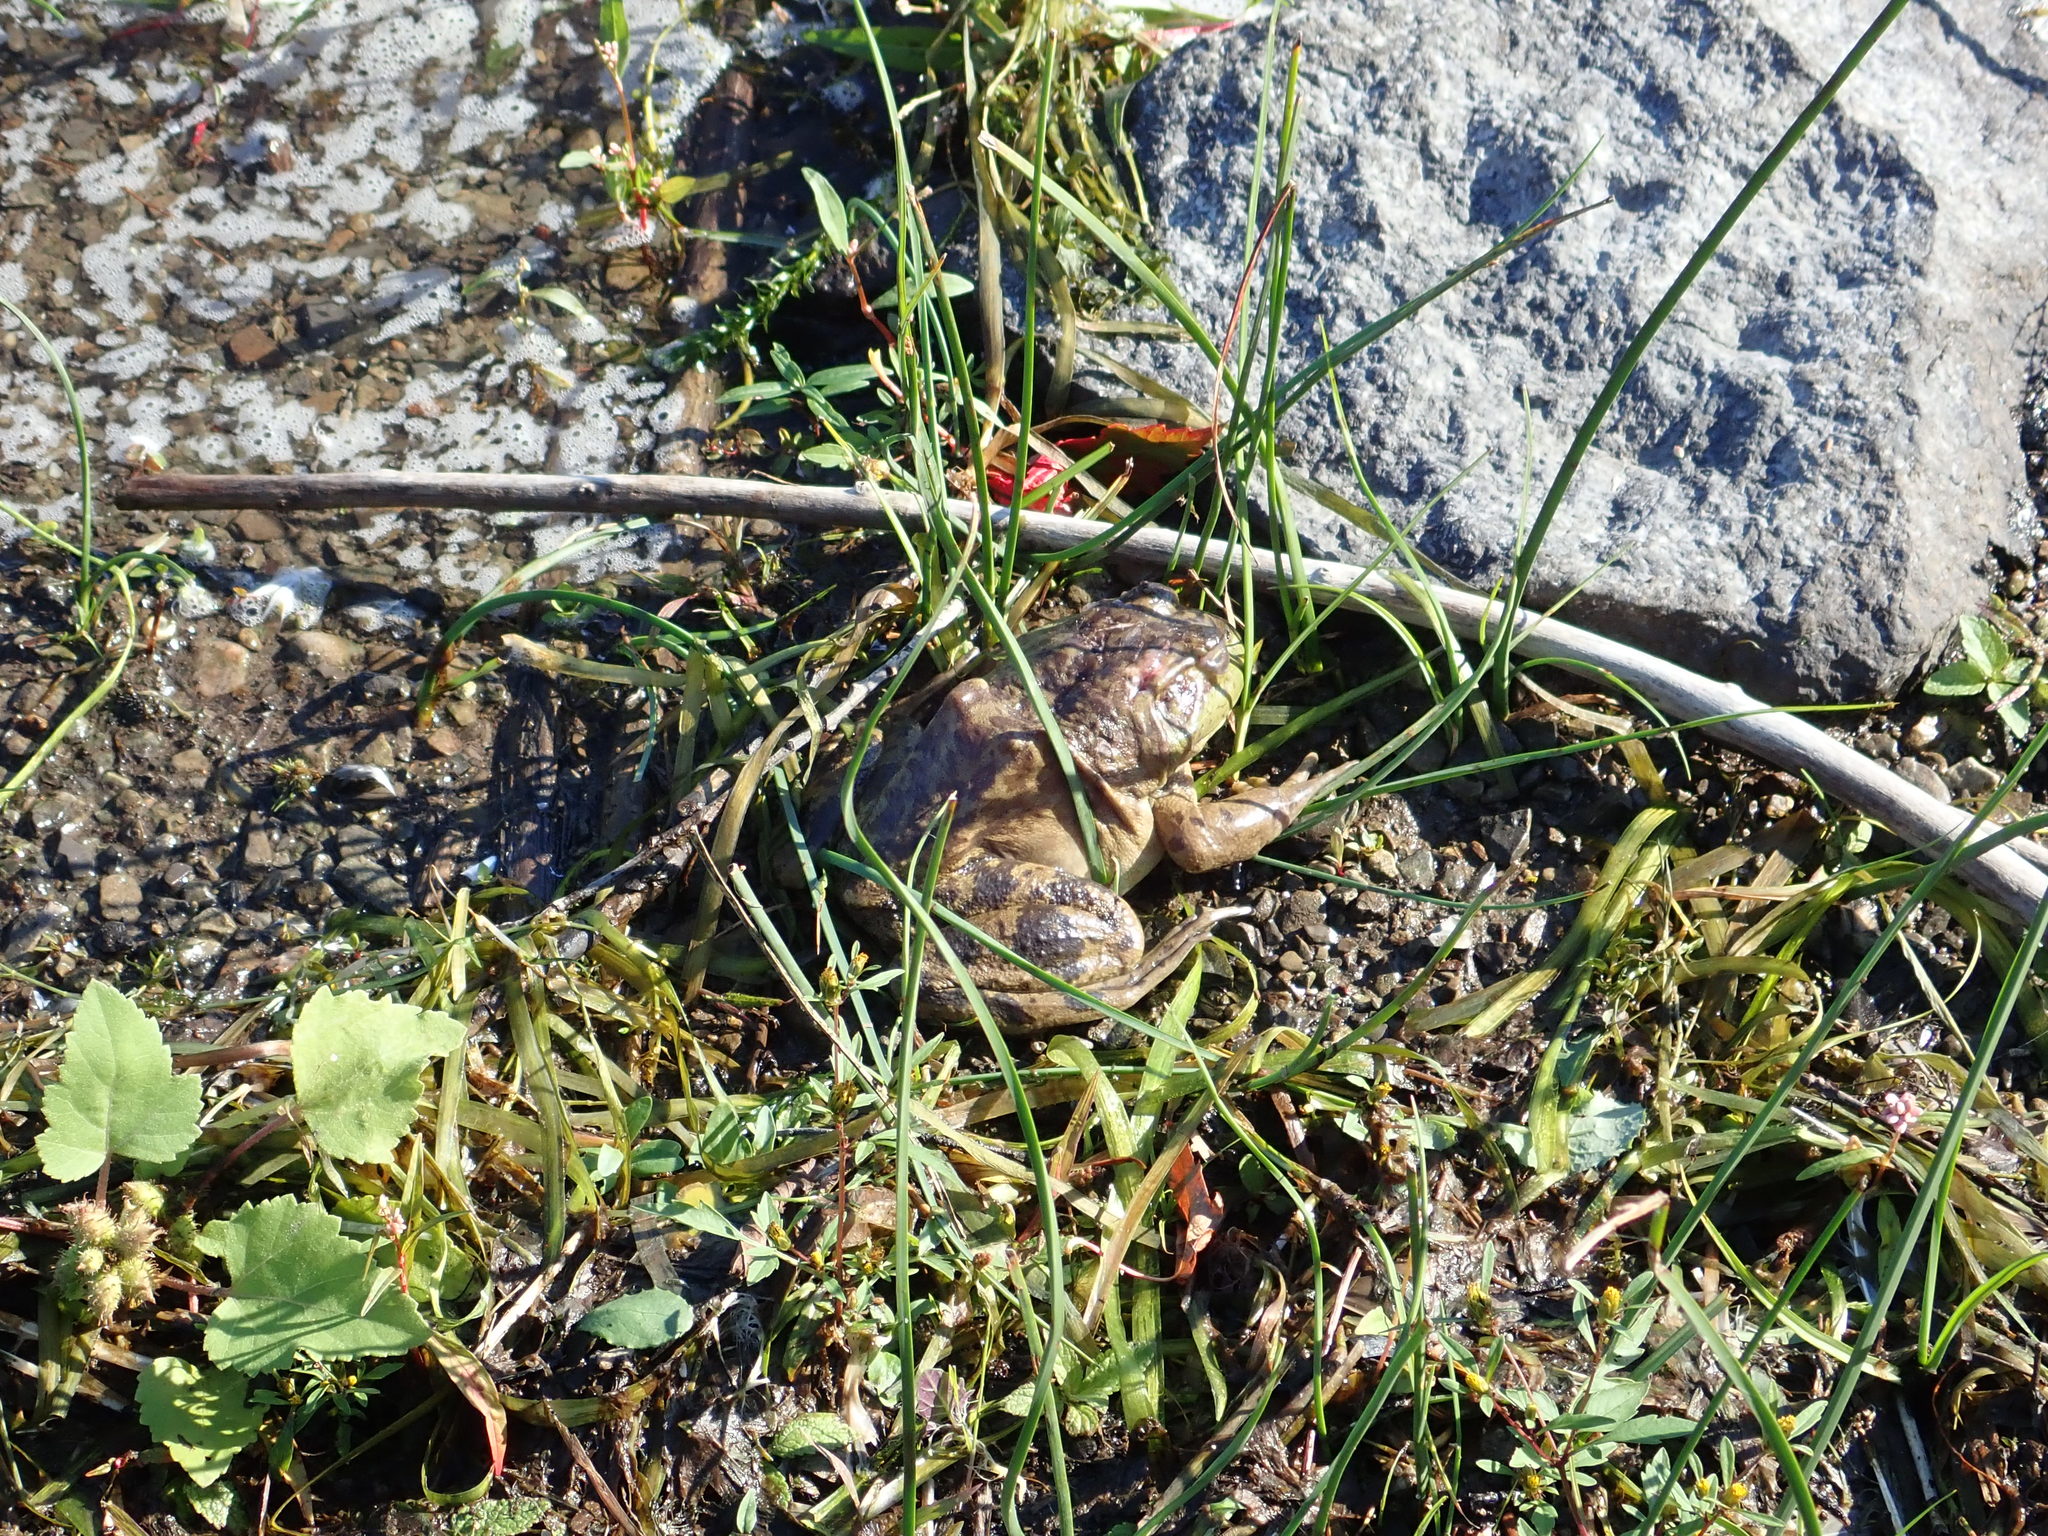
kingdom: Animalia
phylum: Chordata
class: Amphibia
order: Anura
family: Ranidae
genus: Lithobates
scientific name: Lithobates catesbeianus
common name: American bullfrog
